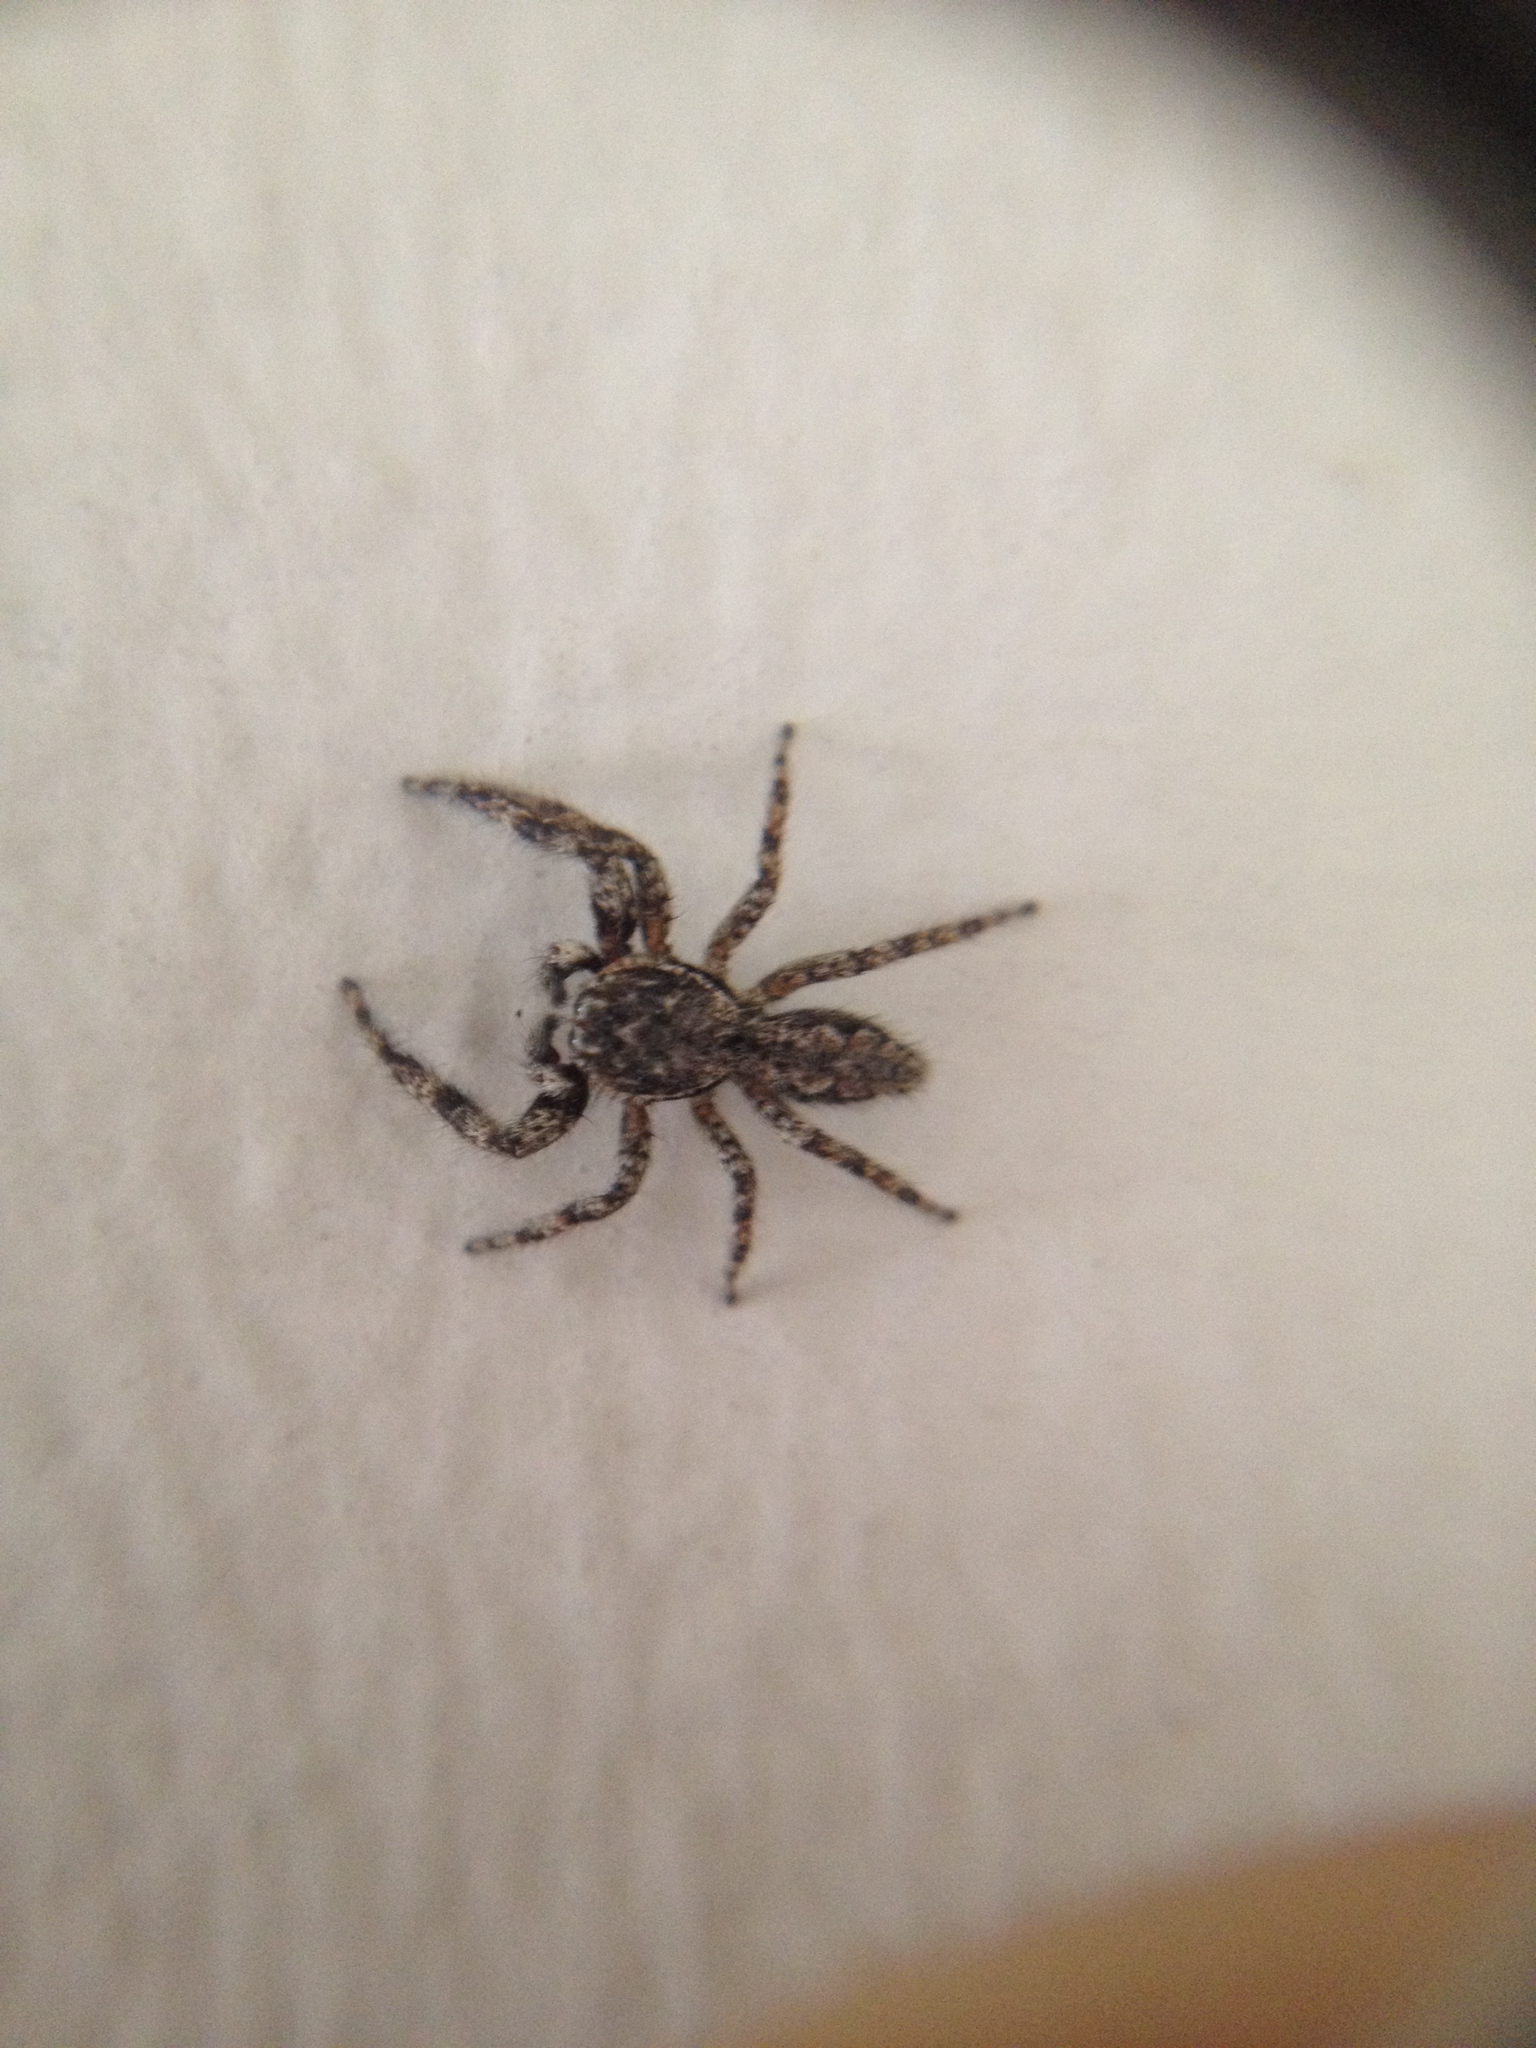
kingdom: Animalia
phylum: Arthropoda
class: Arachnida
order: Araneae
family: Salticidae
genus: Platycryptus
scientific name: Platycryptus undatus
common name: Tan jumping spider
